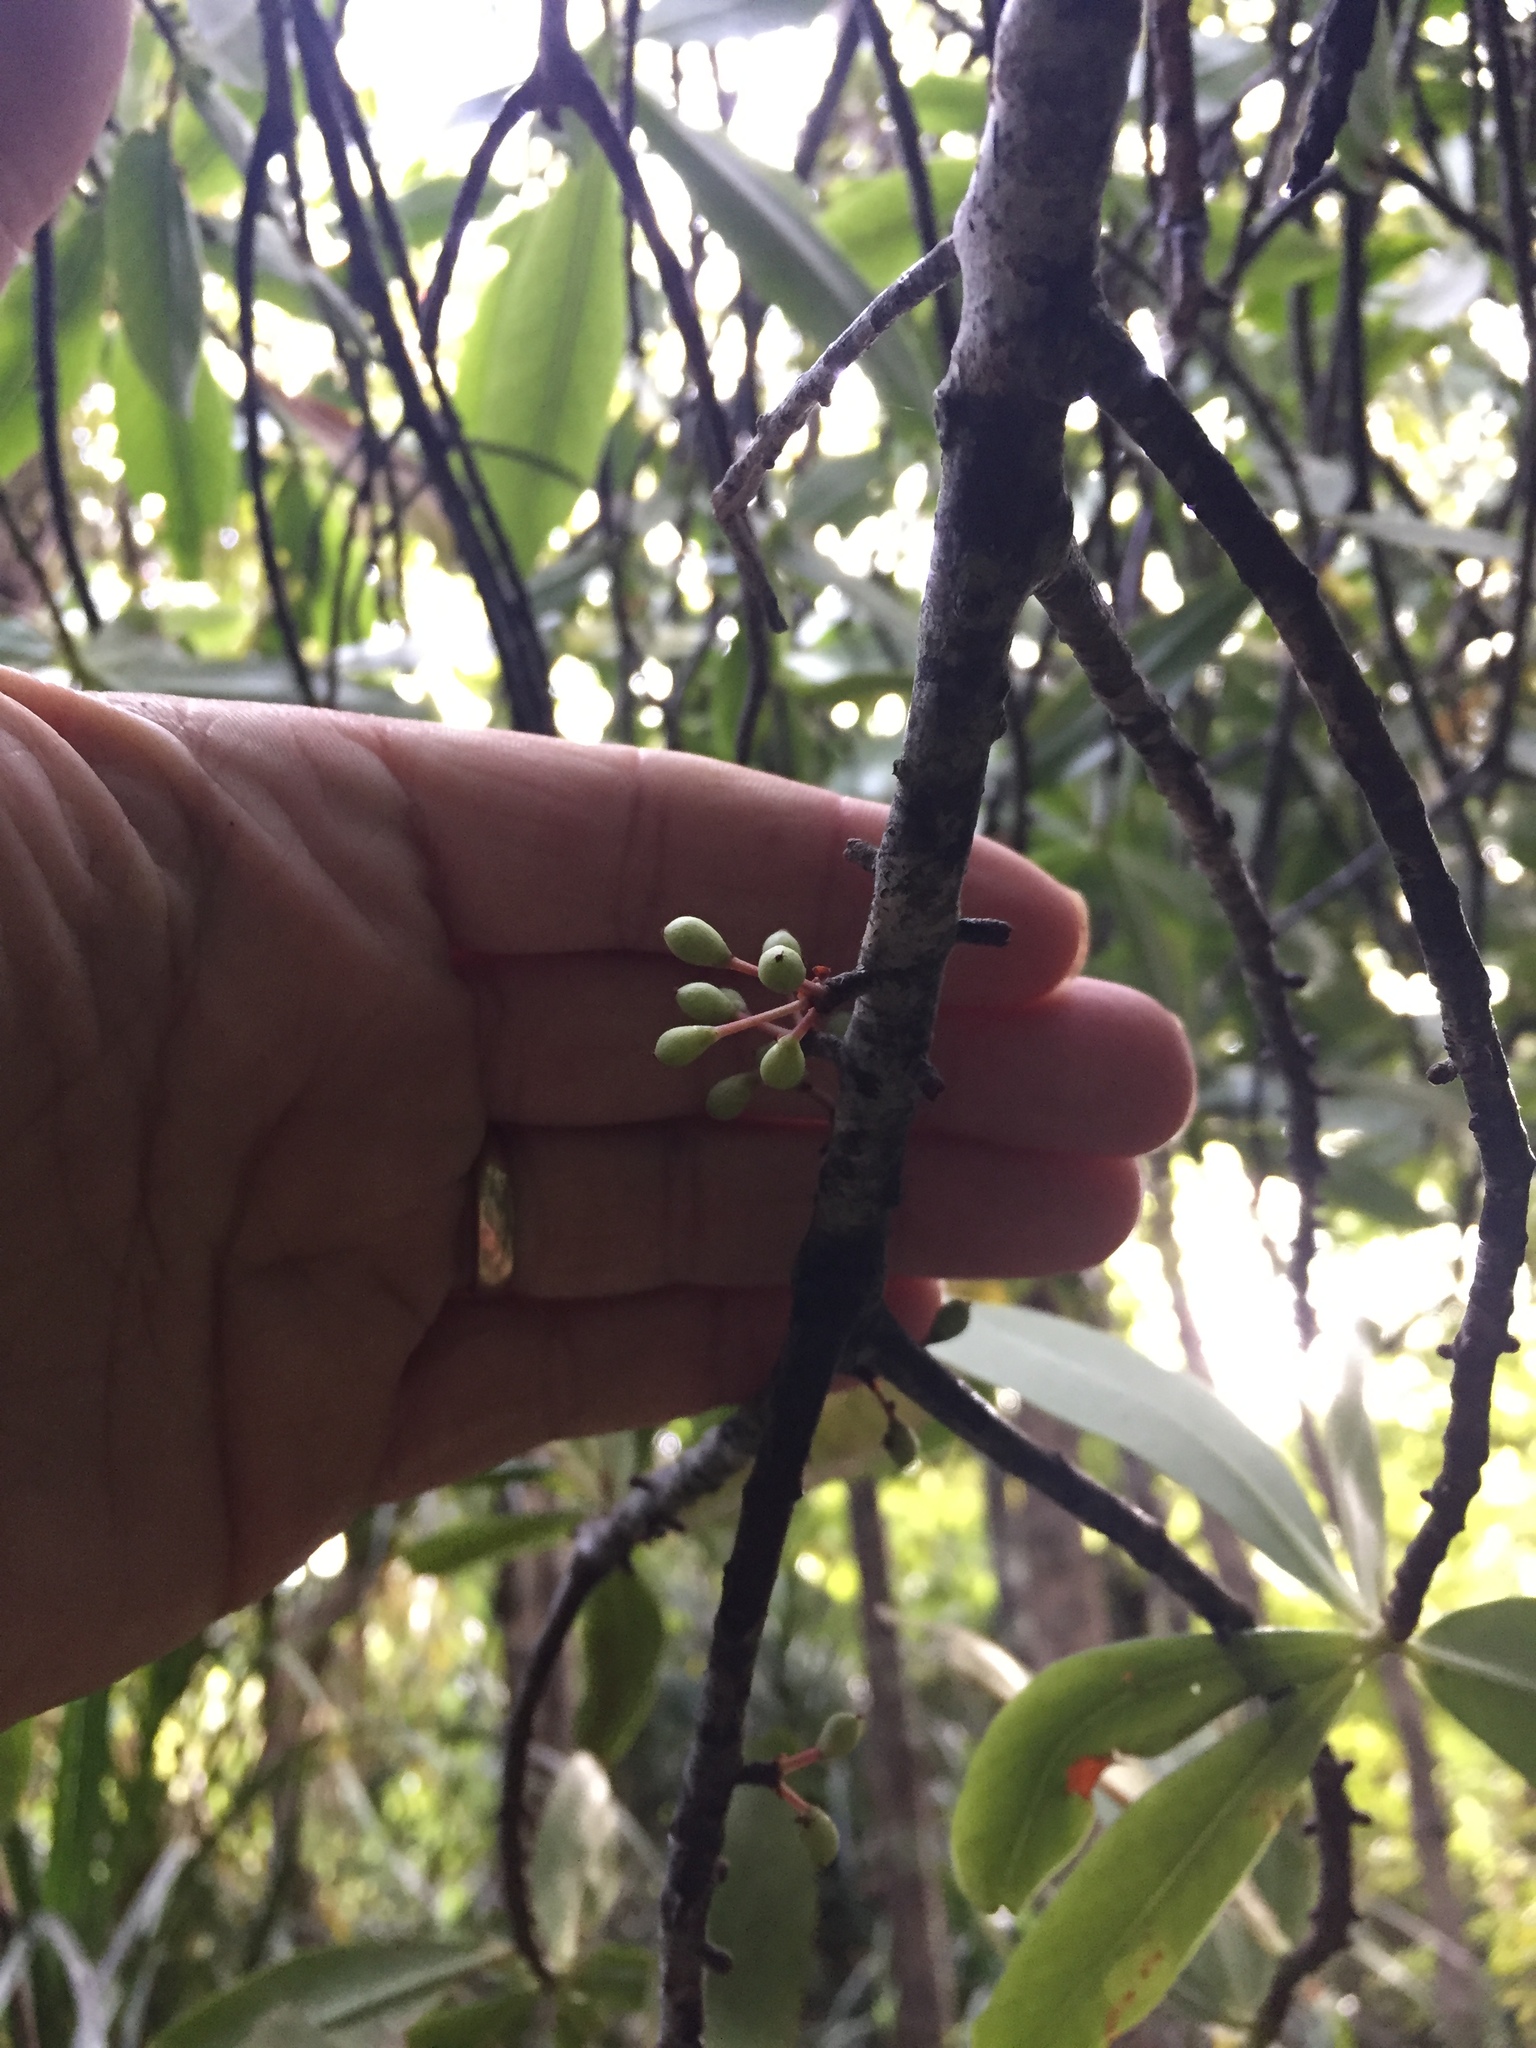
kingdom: Plantae
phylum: Tracheophyta
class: Magnoliopsida
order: Ericales
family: Primulaceae
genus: Myrsine
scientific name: Myrsine salicina
